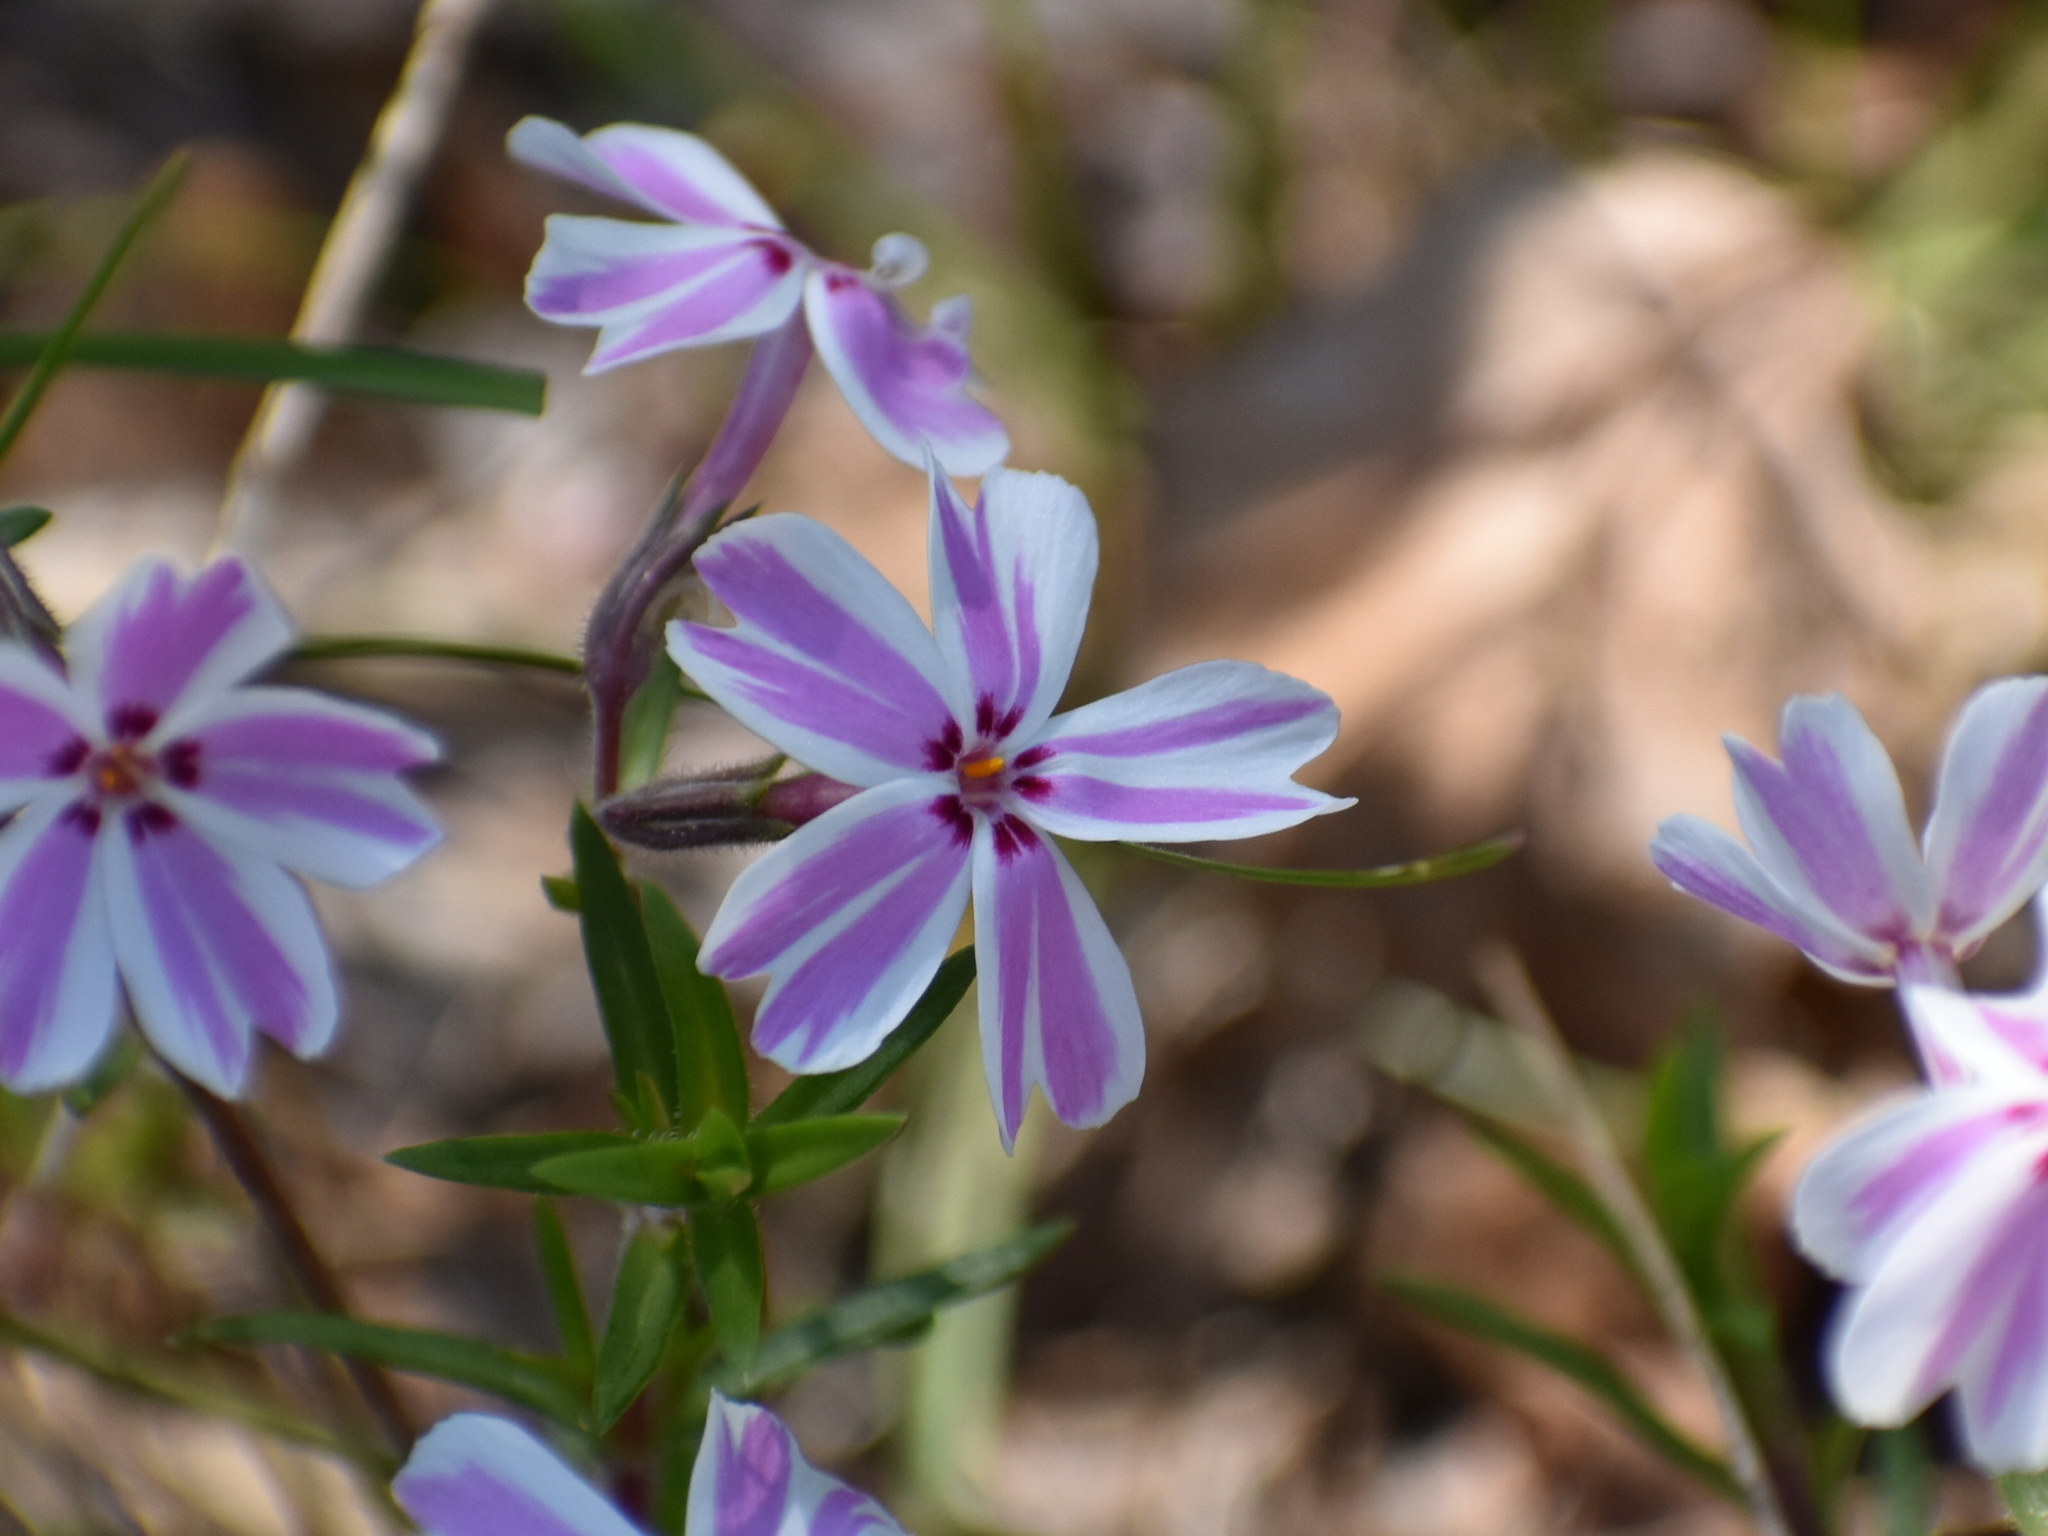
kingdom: Plantae
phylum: Tracheophyta
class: Magnoliopsida
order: Ericales
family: Polemoniaceae
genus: Phlox
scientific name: Phlox subulata
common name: Moss phlox
